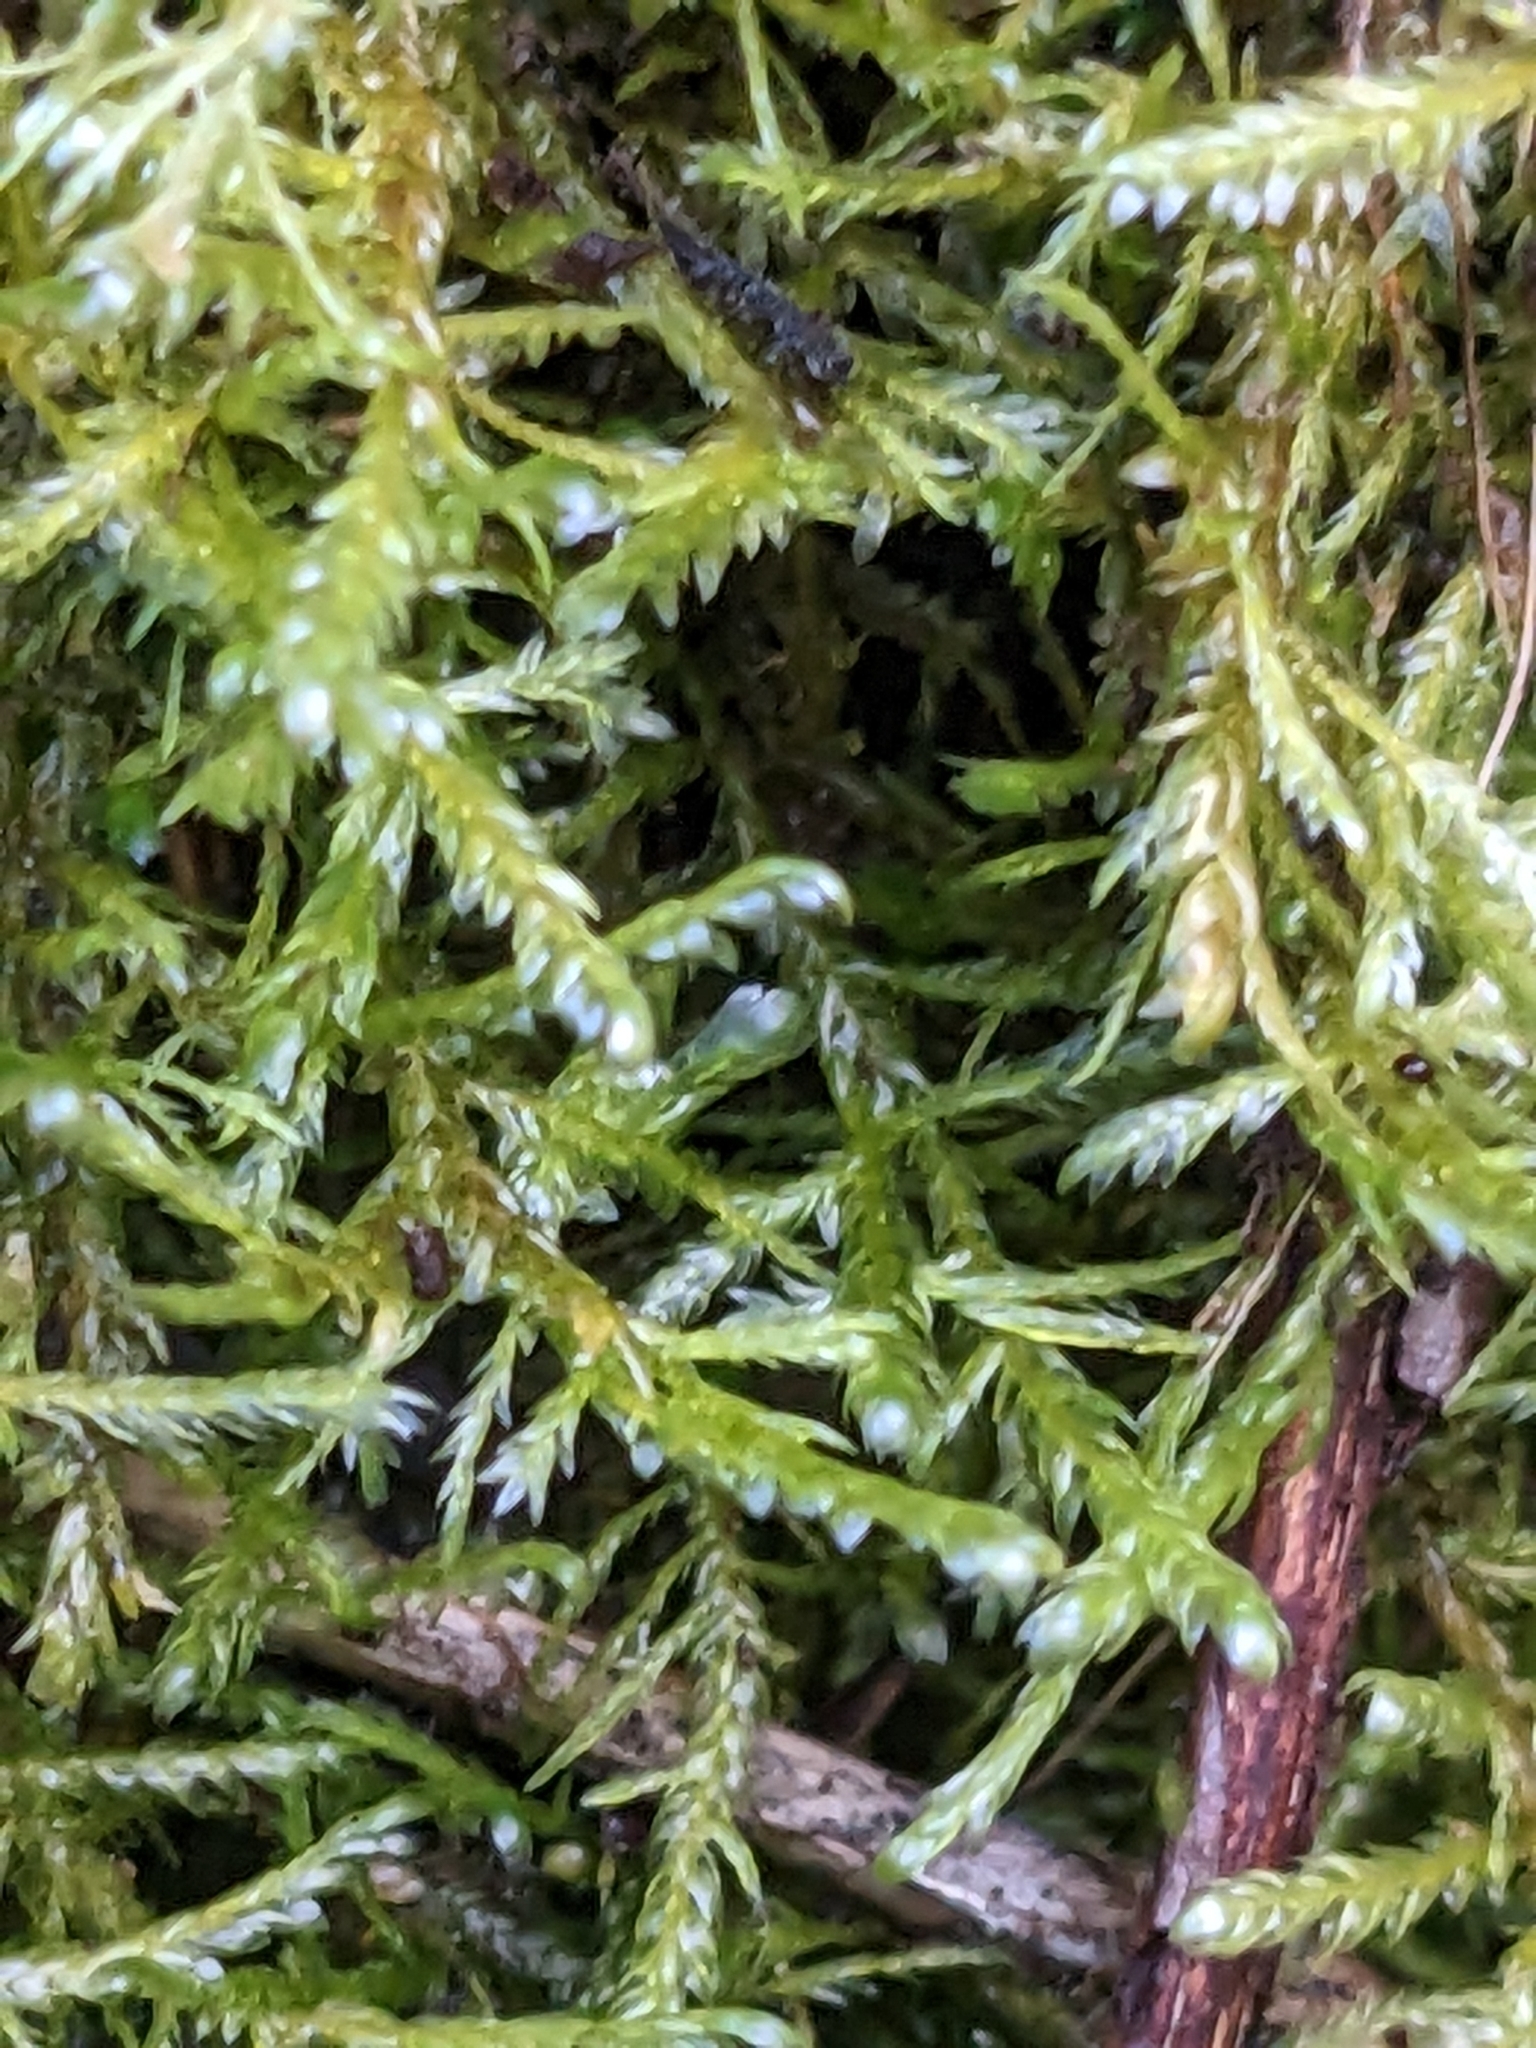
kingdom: Plantae
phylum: Bryophyta
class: Bryopsida
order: Hypnales
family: Neckeraceae
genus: Alleniella
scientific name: Alleniella complanata
